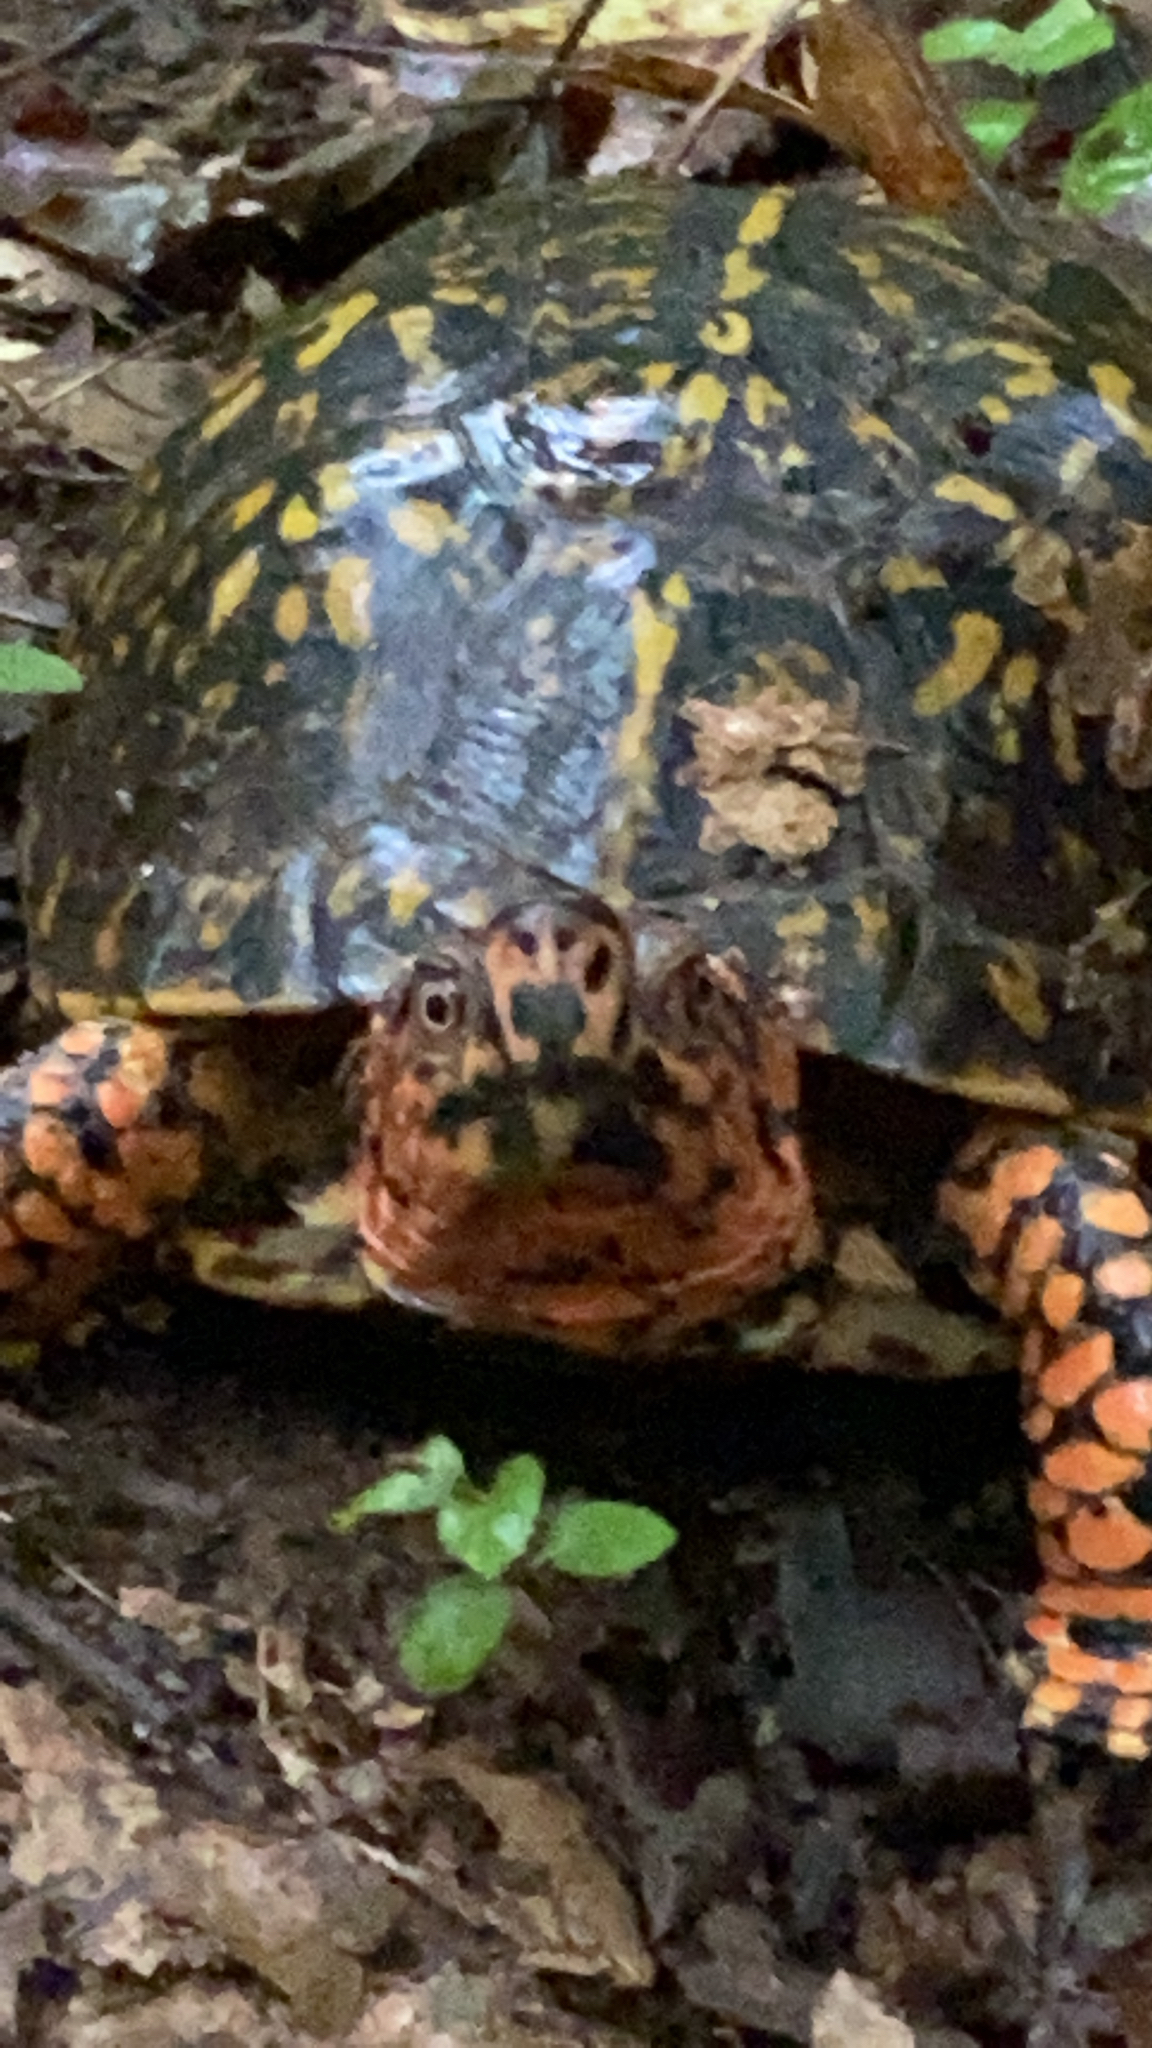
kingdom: Animalia
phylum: Chordata
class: Testudines
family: Emydidae
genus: Terrapene
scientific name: Terrapene carolina
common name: Common box turtle
